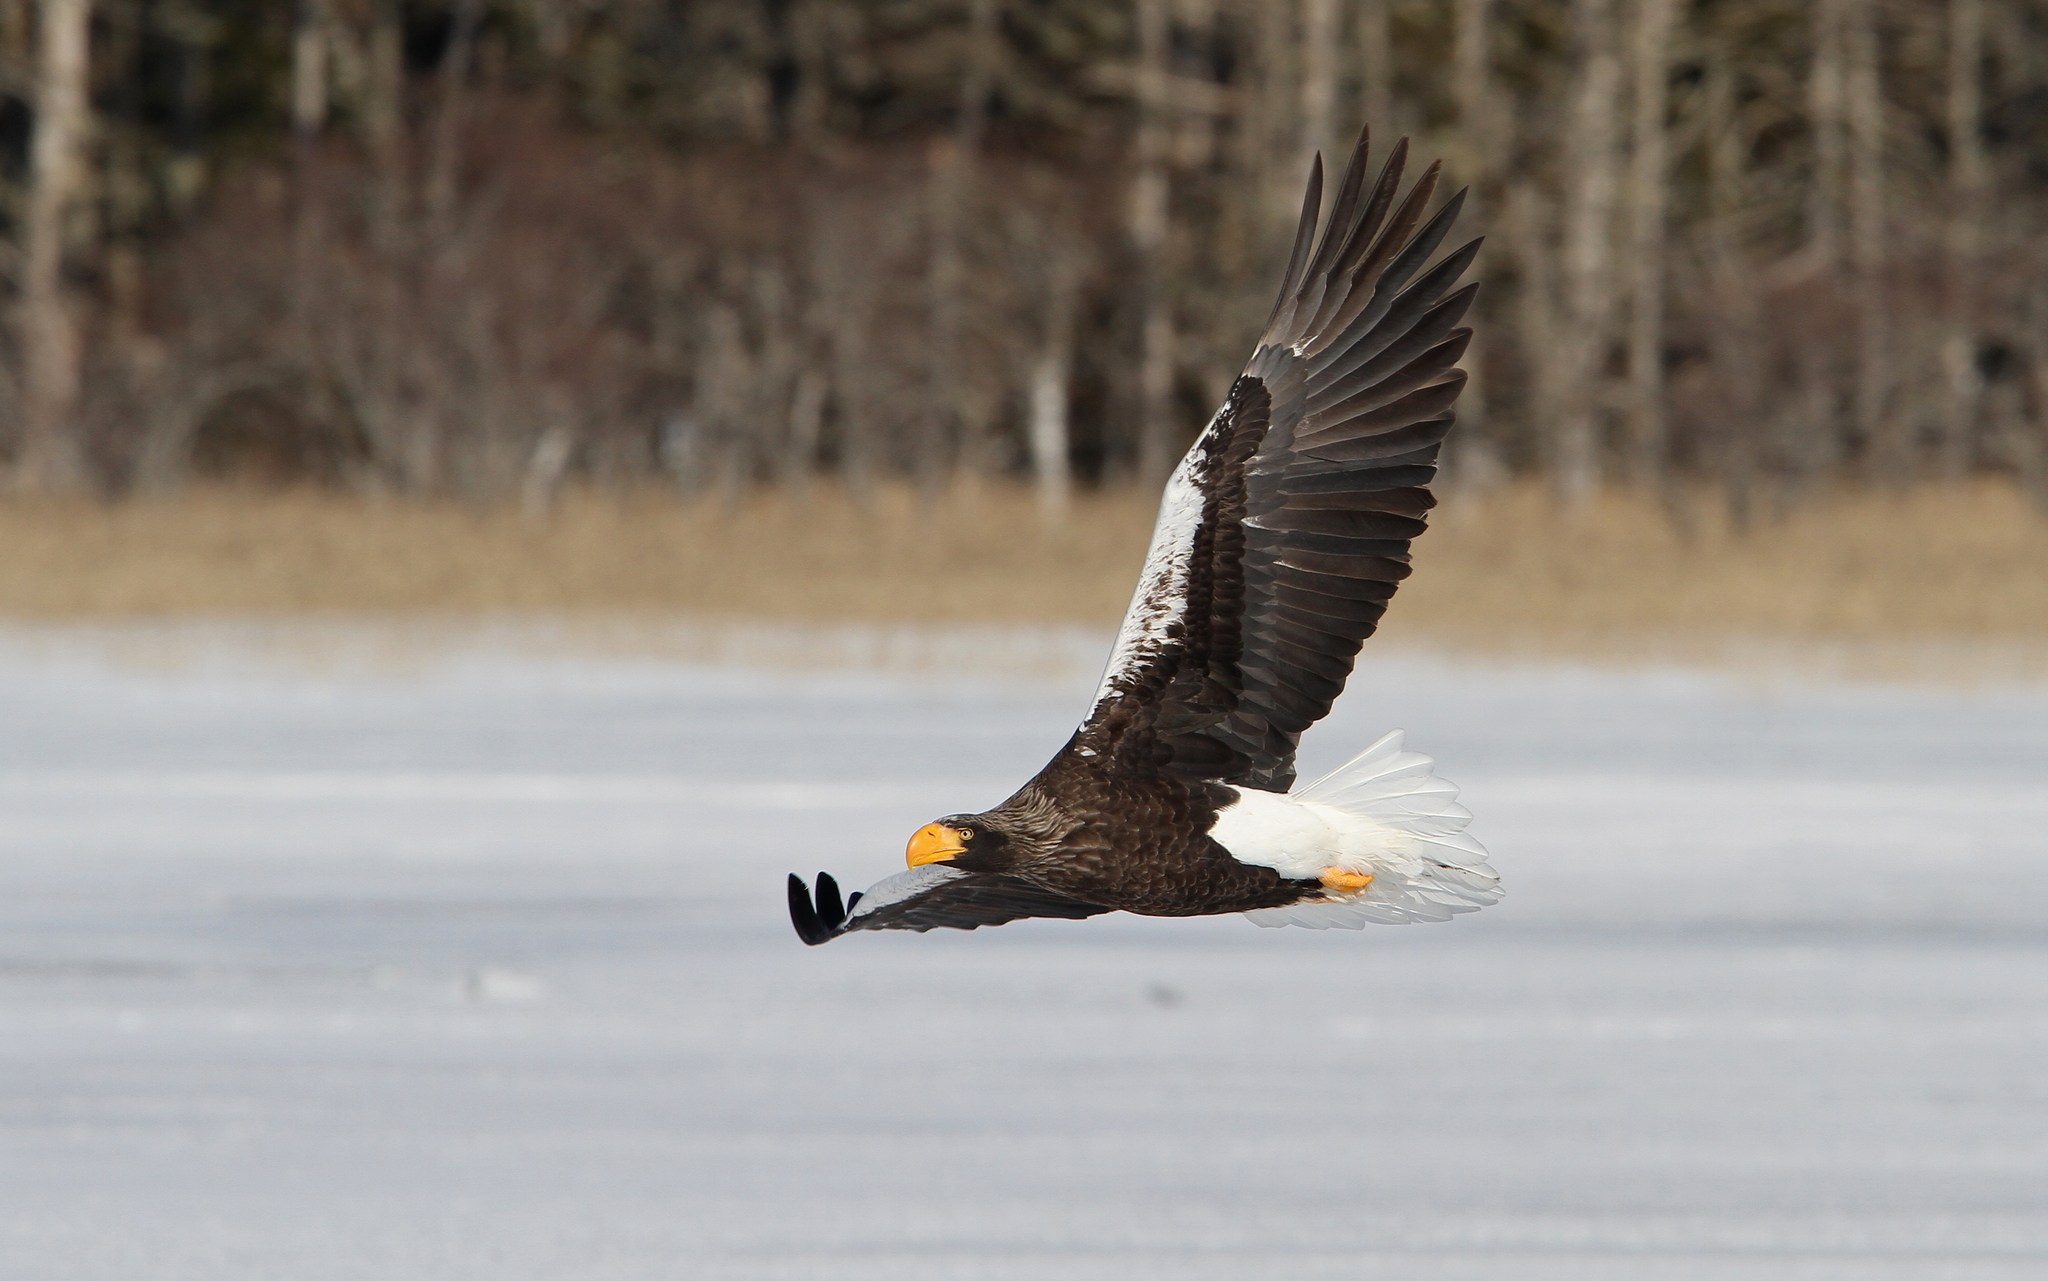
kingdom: Animalia
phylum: Chordata
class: Aves
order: Accipitriformes
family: Accipitridae
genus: Haliaeetus
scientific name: Haliaeetus pelagicus
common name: Steller's sea eagle
